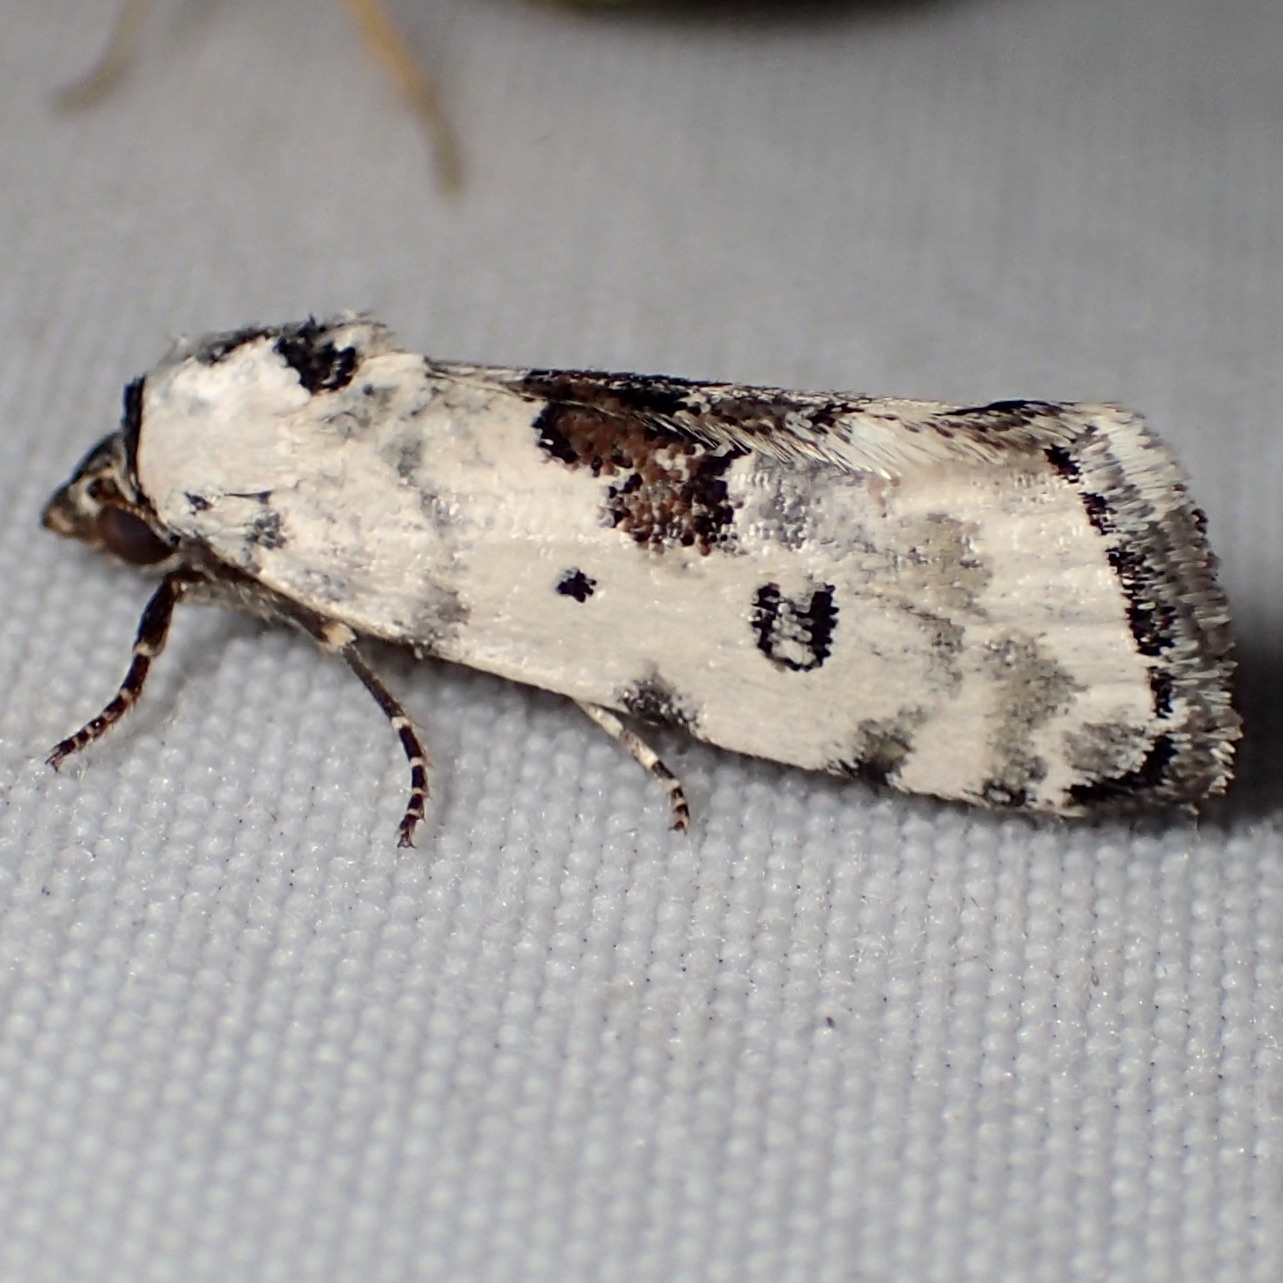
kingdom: Animalia
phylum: Arthropoda
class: Insecta
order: Lepidoptera
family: Noctuidae
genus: Acontia
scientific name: Acontia tripartita
